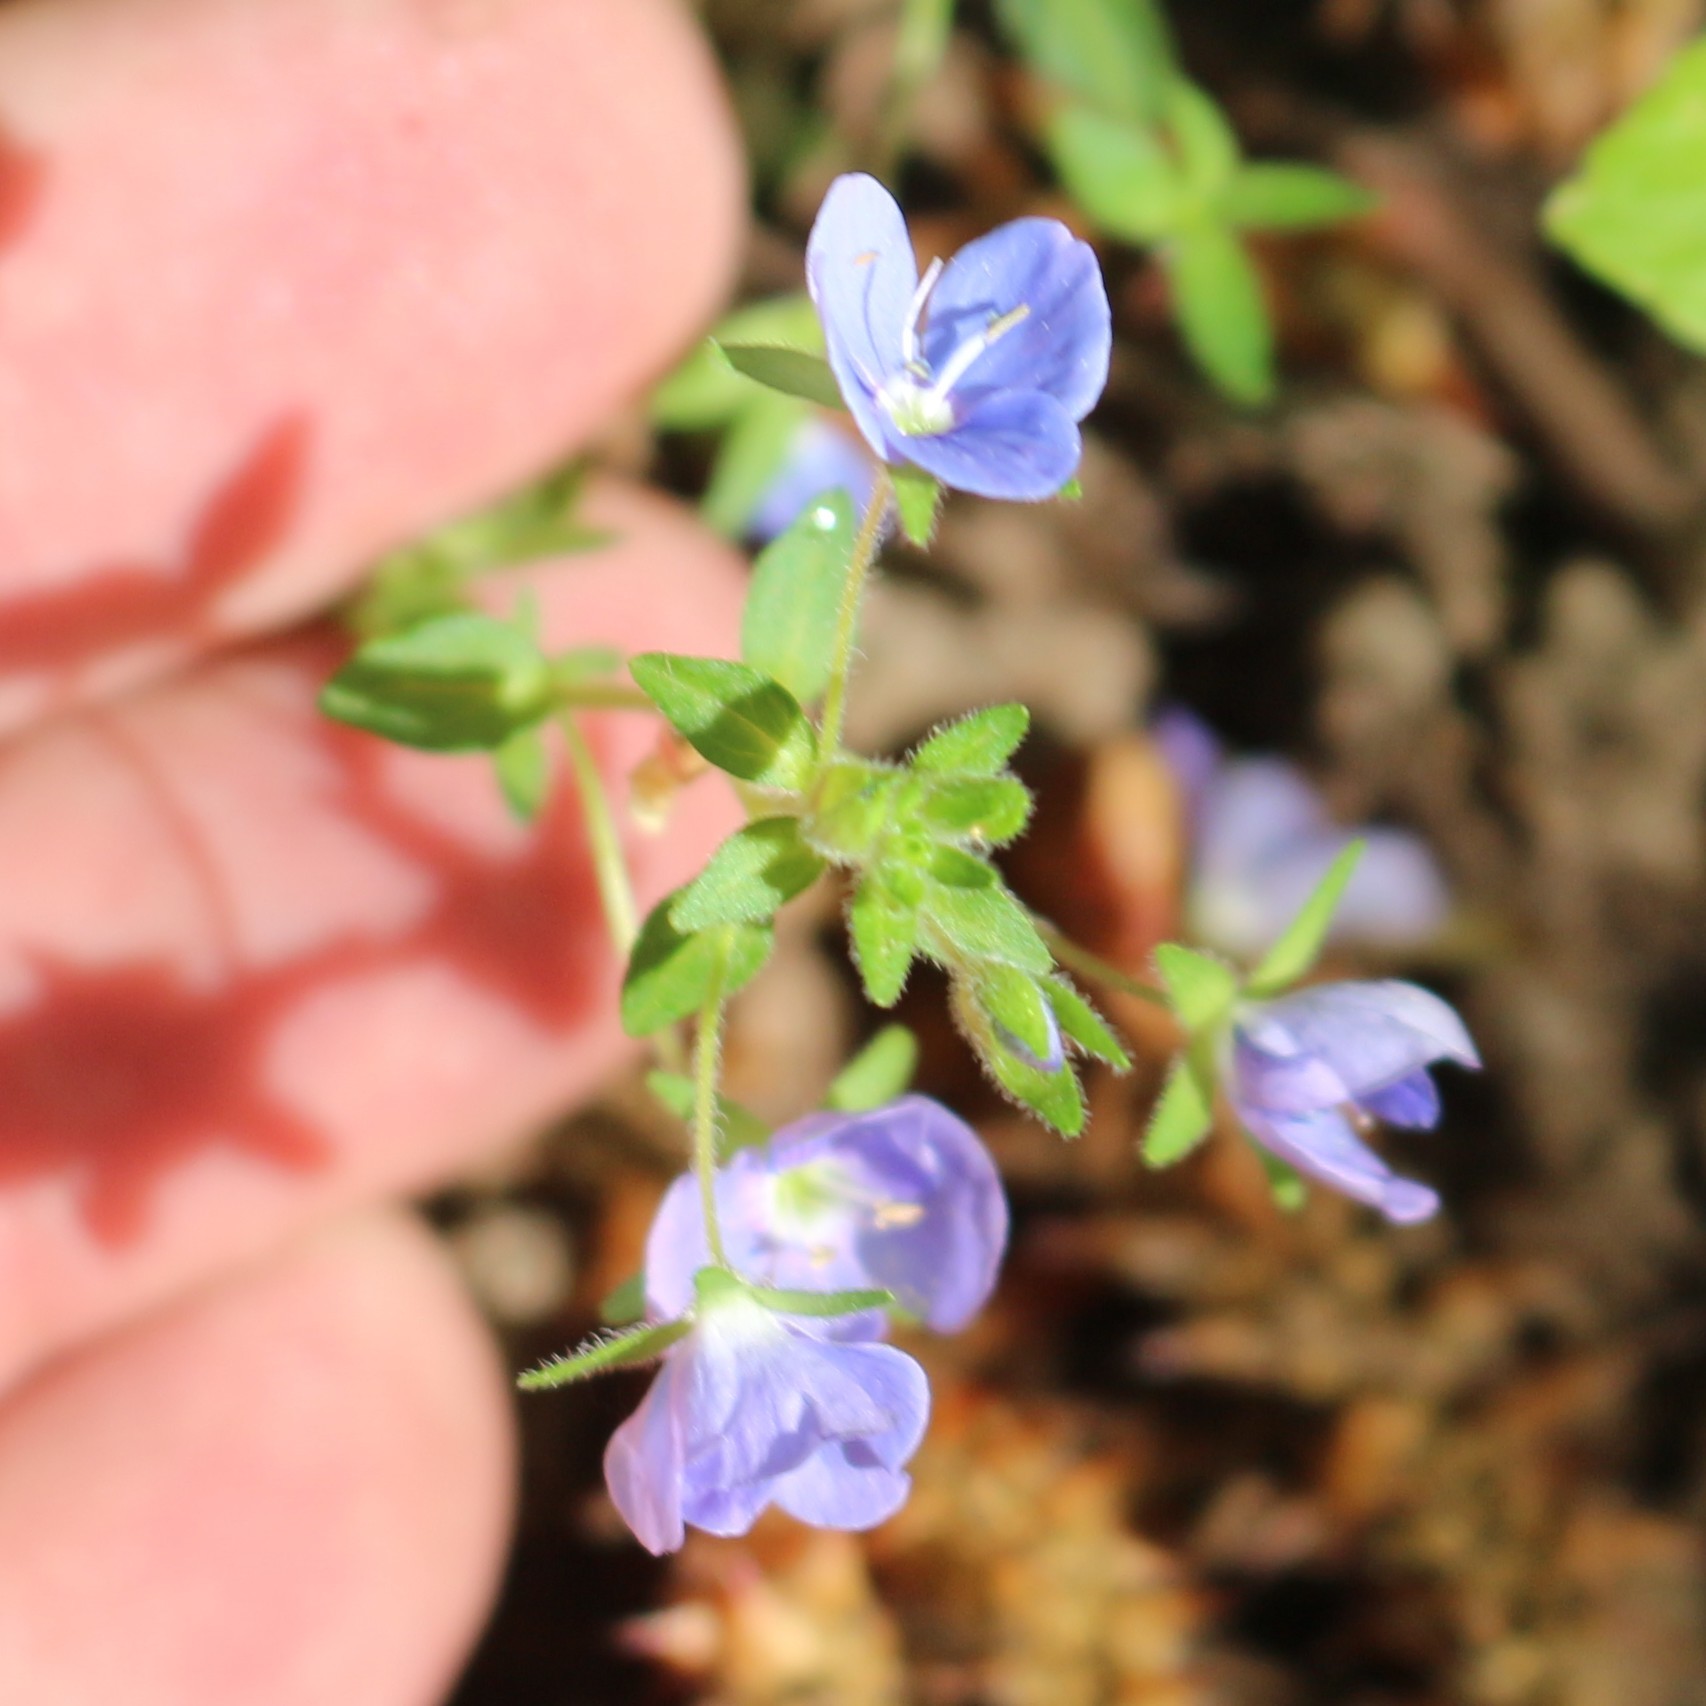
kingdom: Plantae
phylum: Tracheophyta
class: Magnoliopsida
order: Lamiales
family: Plantaginaceae
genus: Veronica
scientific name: Veronica
